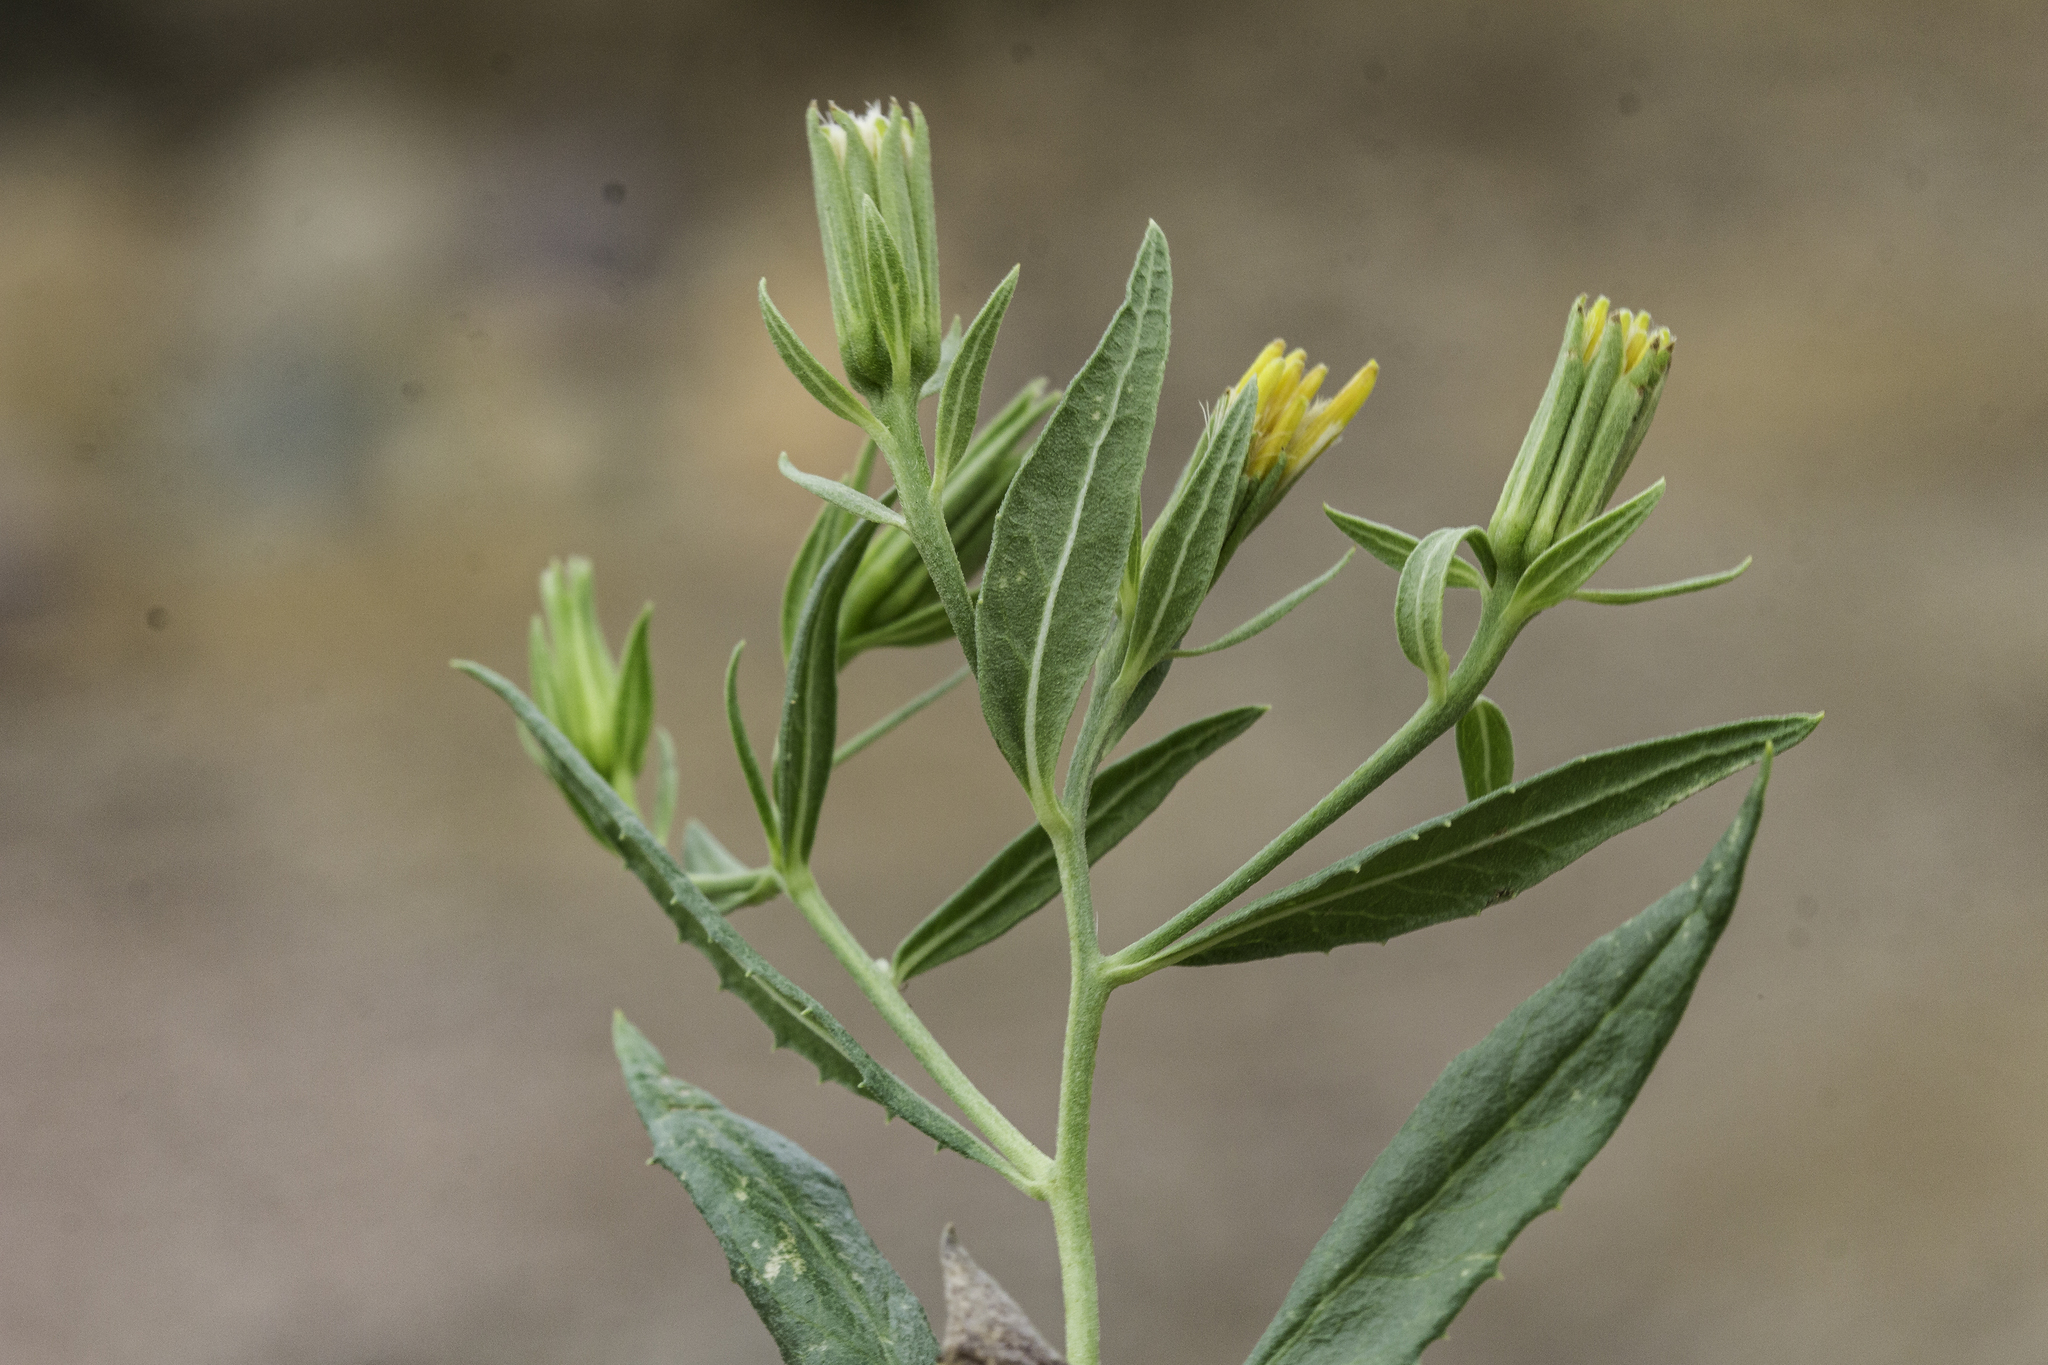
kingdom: Plantae
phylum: Tracheophyta
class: Magnoliopsida
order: Asterales
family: Asteraceae
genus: Trixis
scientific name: Trixis californica
